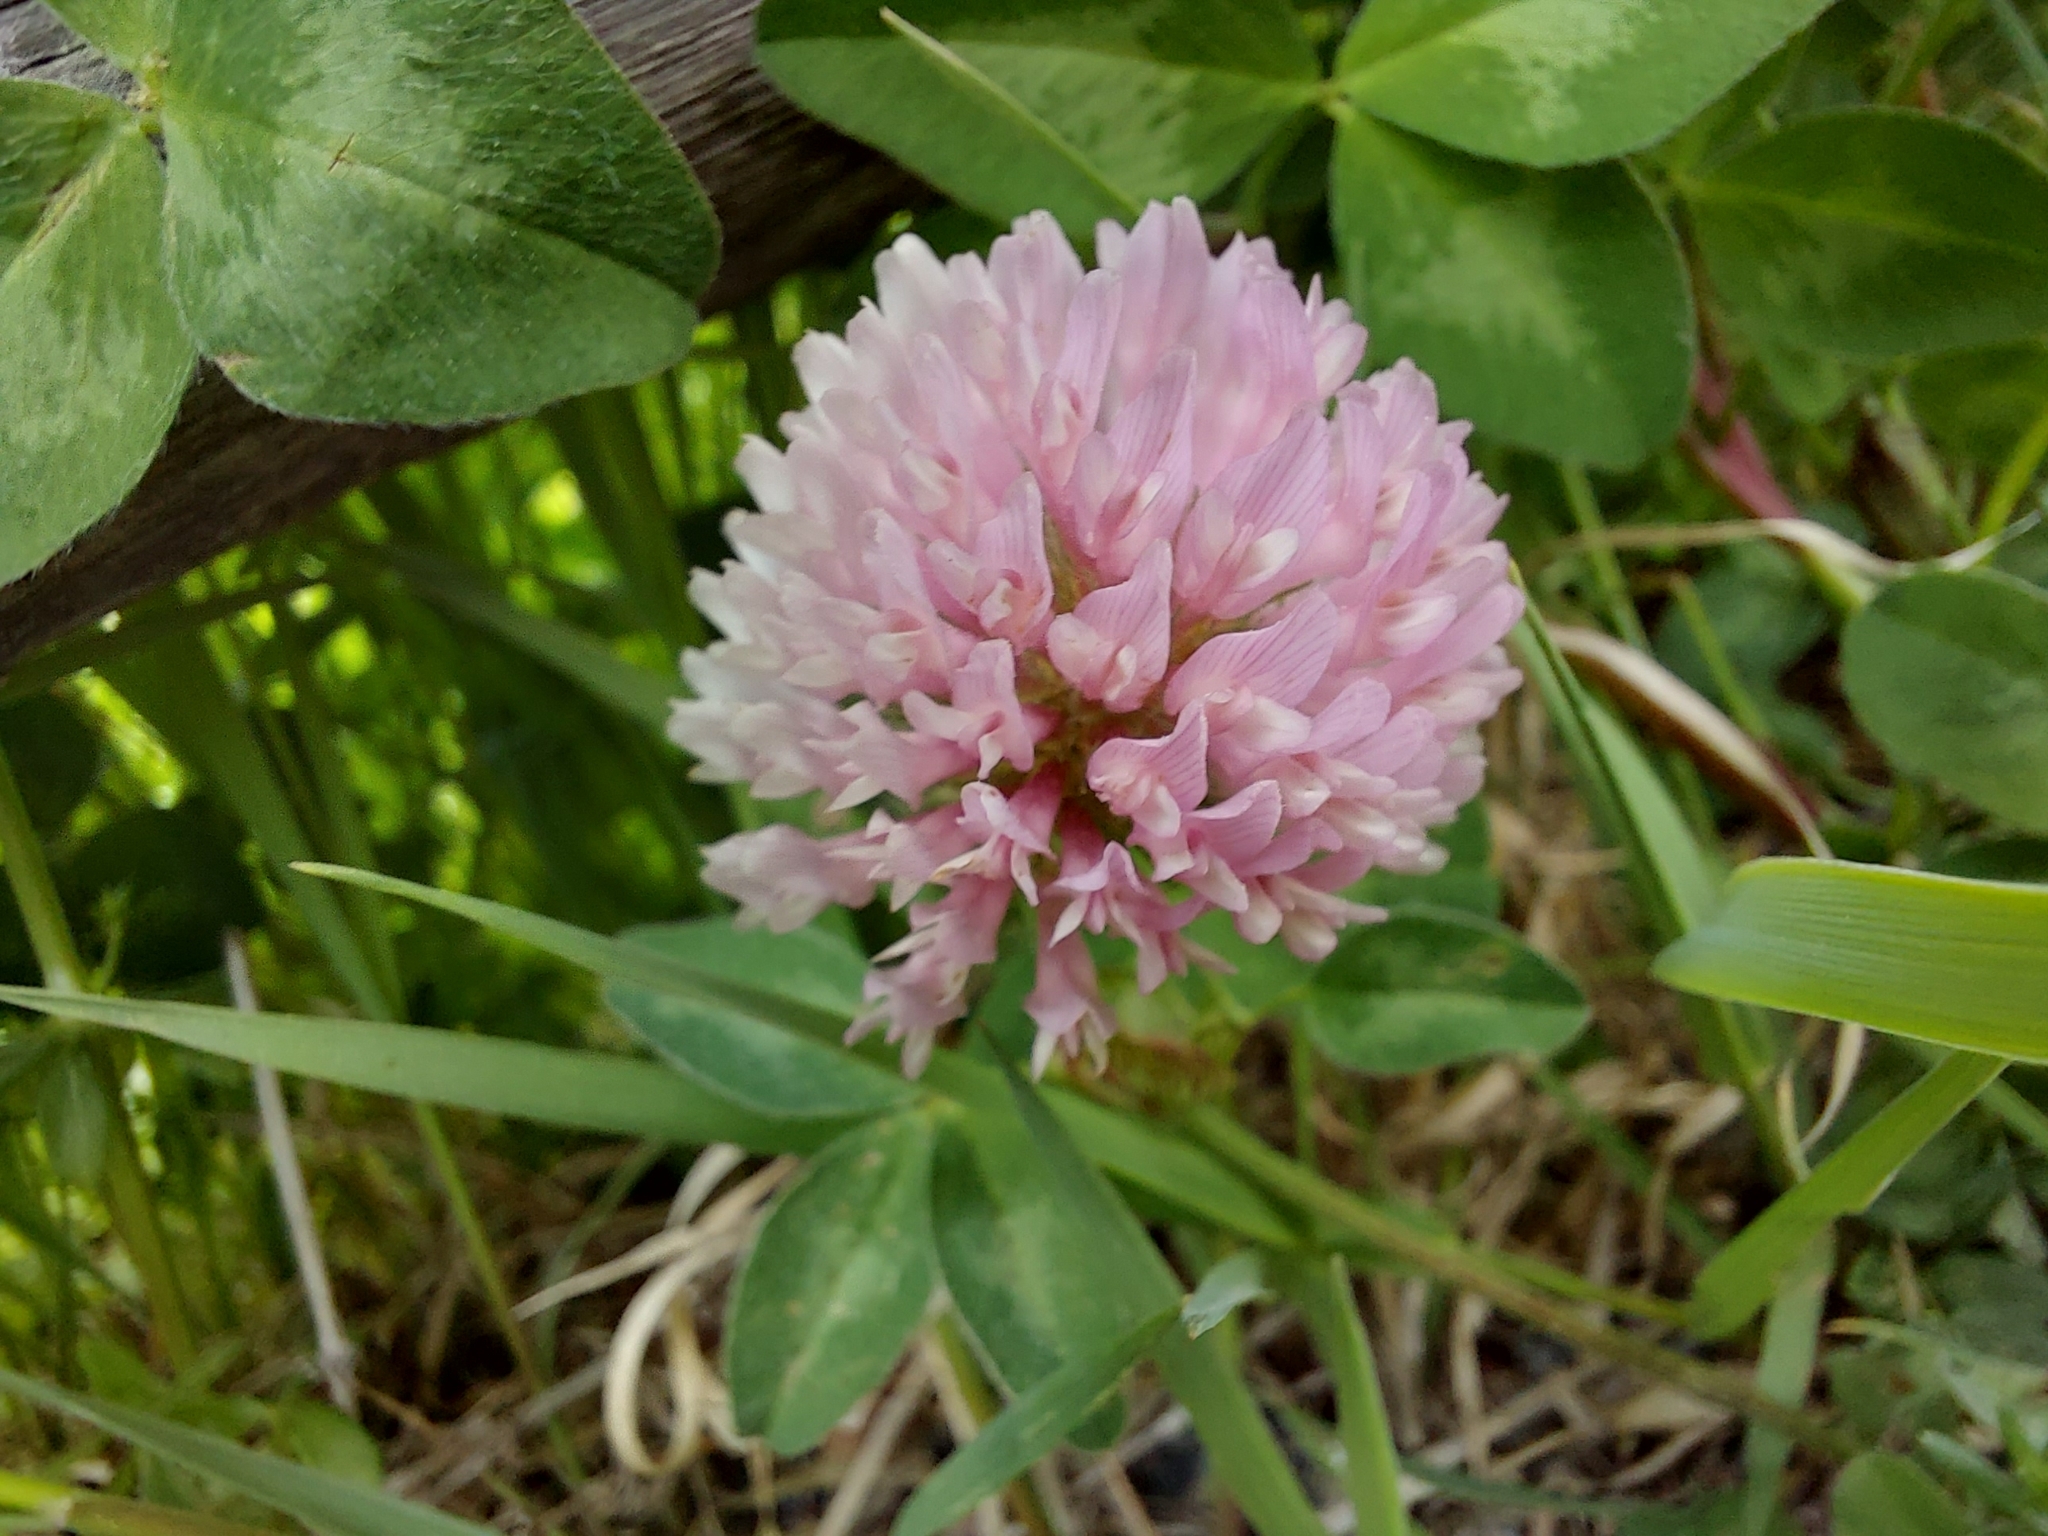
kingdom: Plantae
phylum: Tracheophyta
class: Magnoliopsida
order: Fabales
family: Fabaceae
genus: Trifolium
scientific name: Trifolium pratense
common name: Red clover
